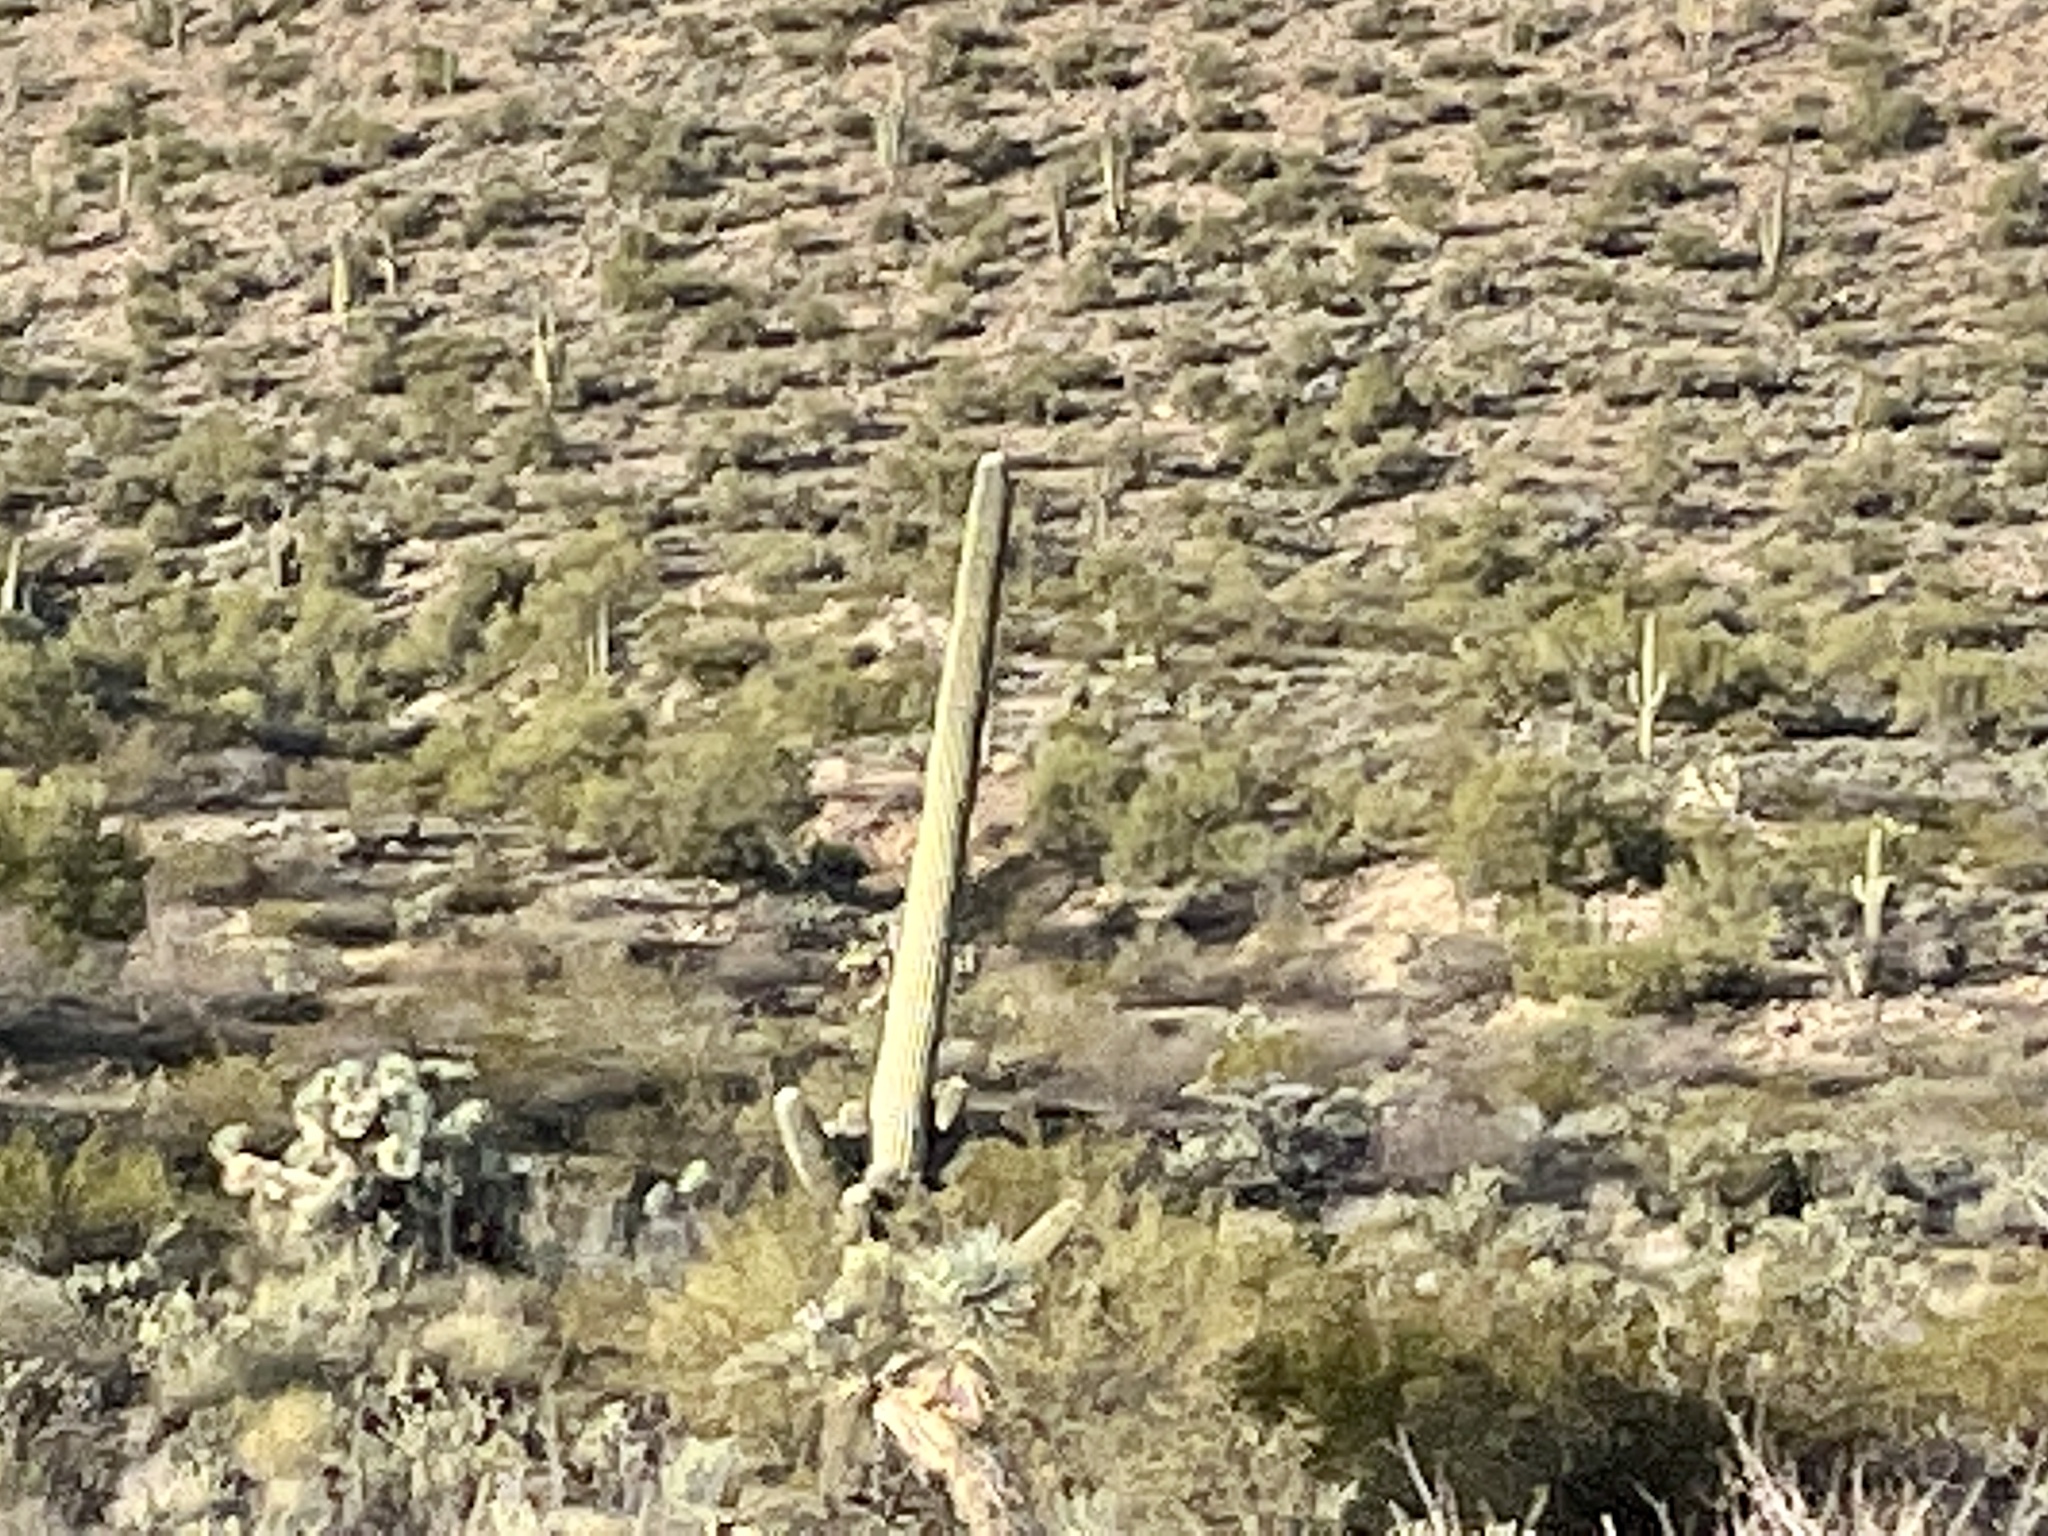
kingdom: Plantae
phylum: Tracheophyta
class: Magnoliopsida
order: Caryophyllales
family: Cactaceae
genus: Carnegiea
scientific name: Carnegiea gigantea
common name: Saguaro
